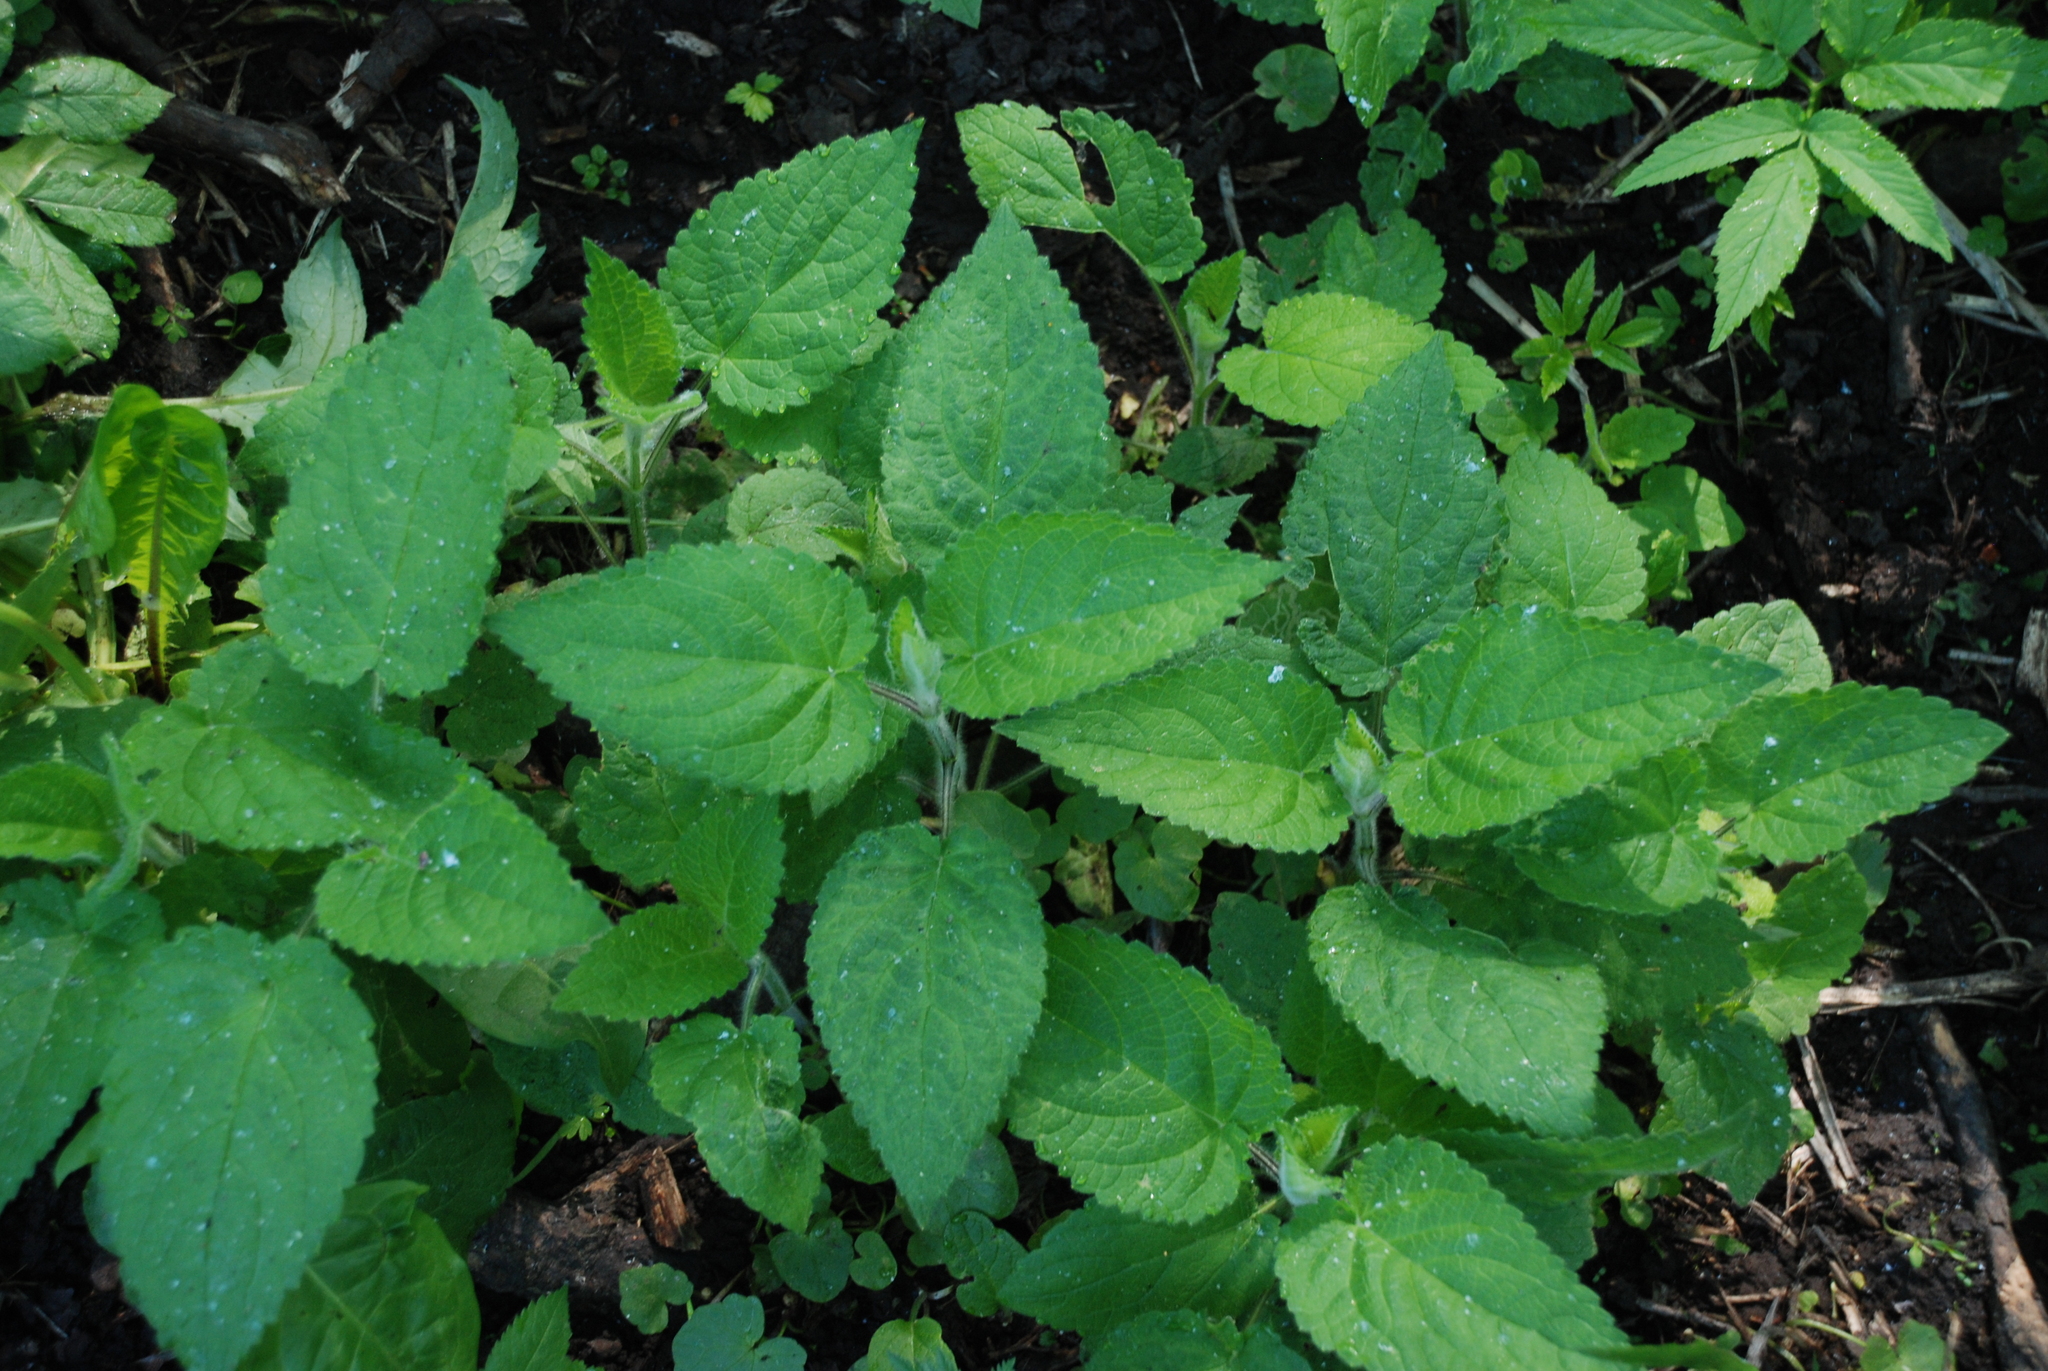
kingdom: Plantae
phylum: Tracheophyta
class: Magnoliopsida
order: Lamiales
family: Lamiaceae
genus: Stachys
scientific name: Stachys sylvatica
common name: Hedge woundwort
